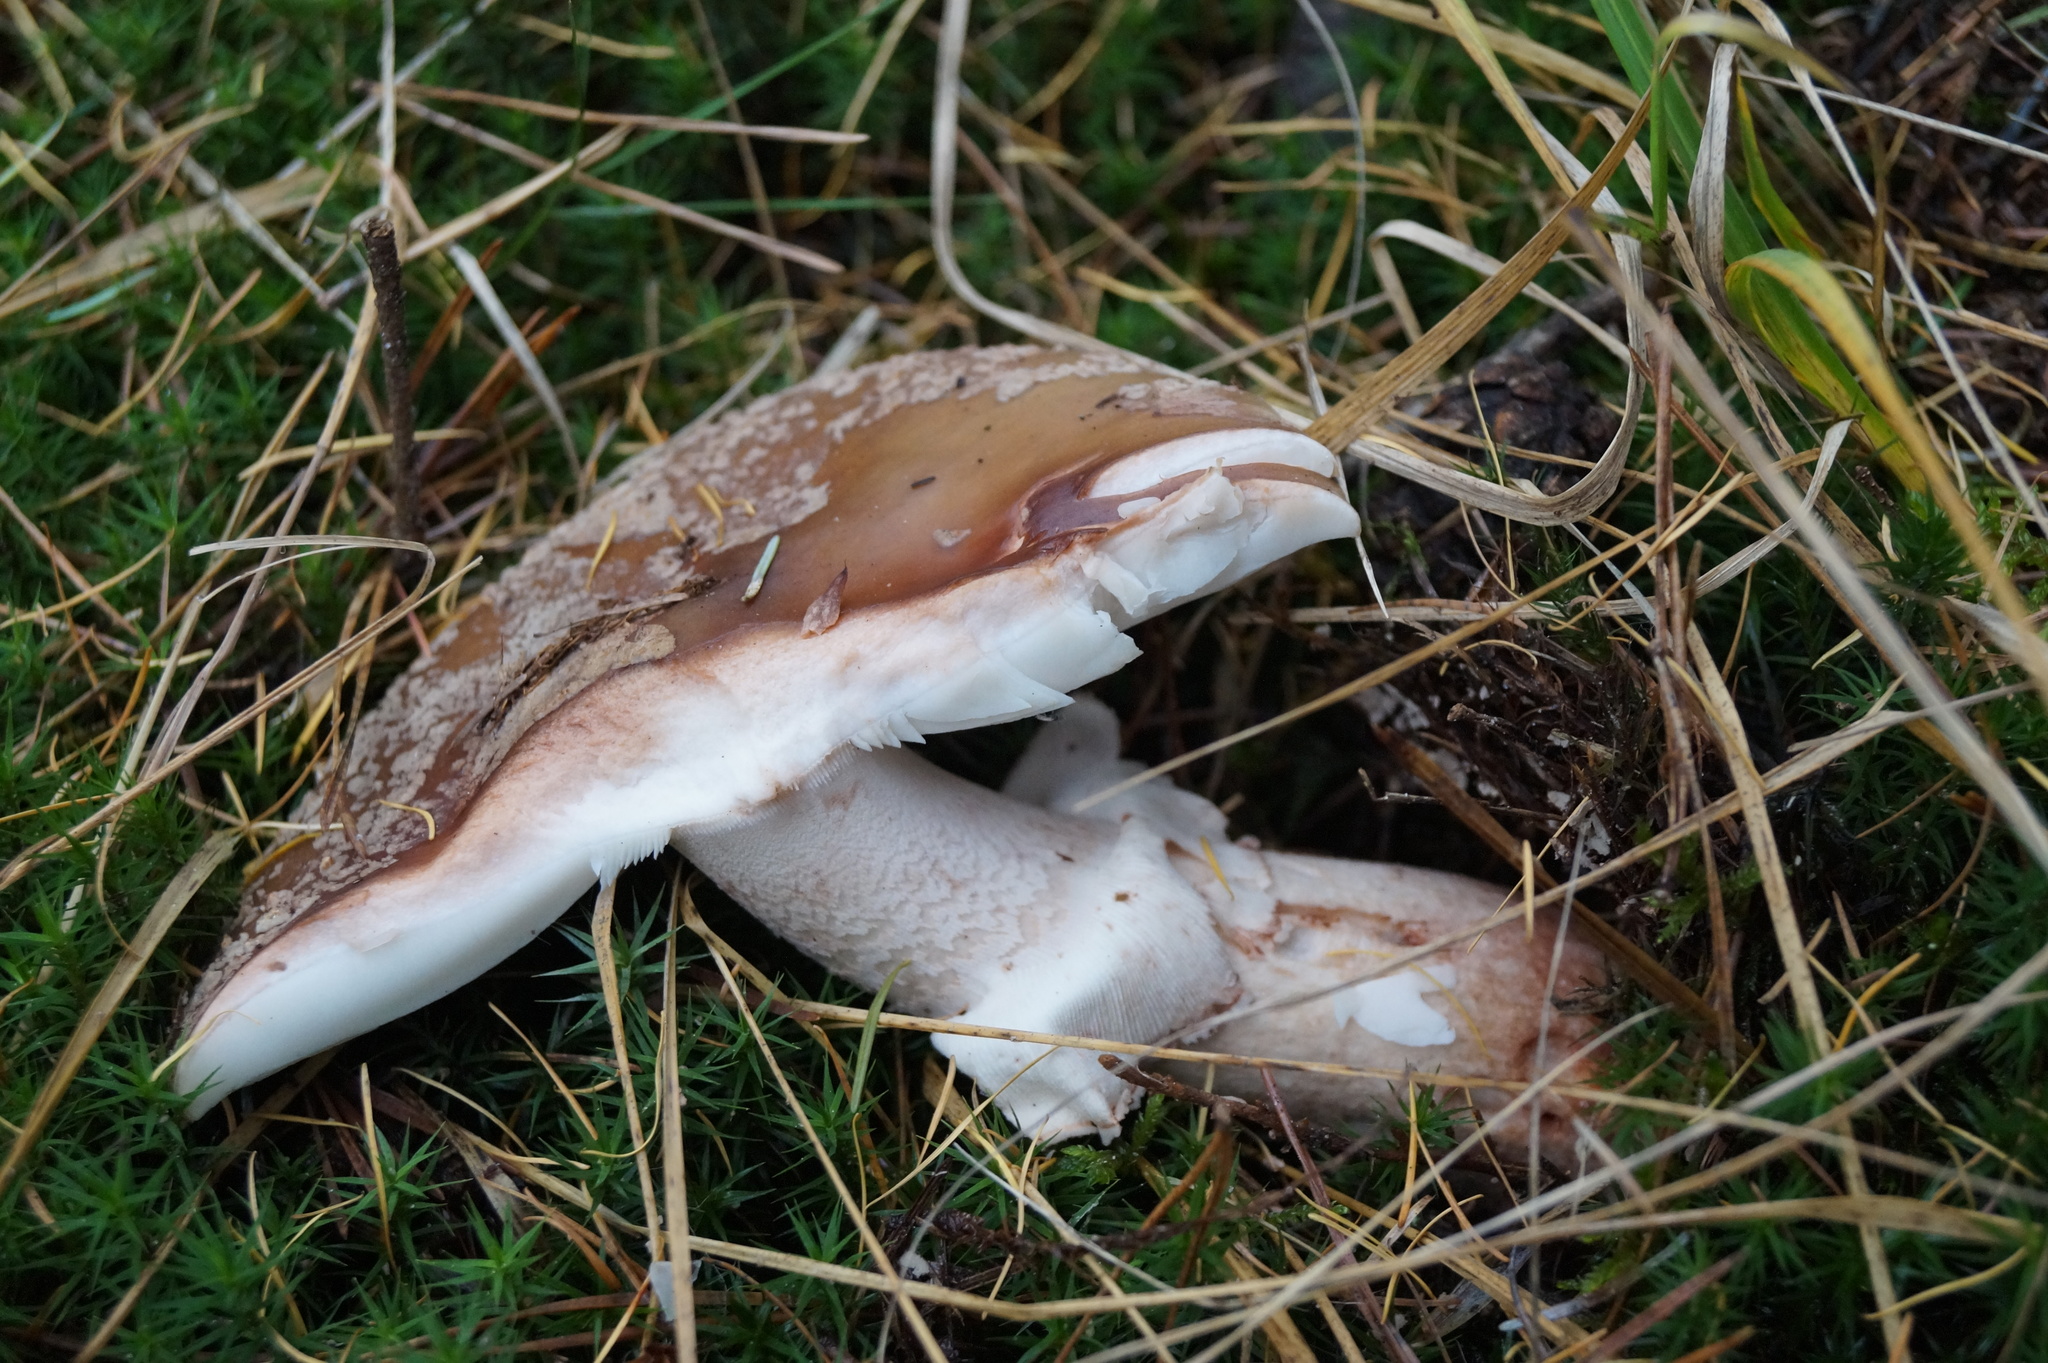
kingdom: Fungi
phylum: Basidiomycota
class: Agaricomycetes
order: Agaricales
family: Amanitaceae
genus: Amanita
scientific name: Amanita rubescens
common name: Blusher
